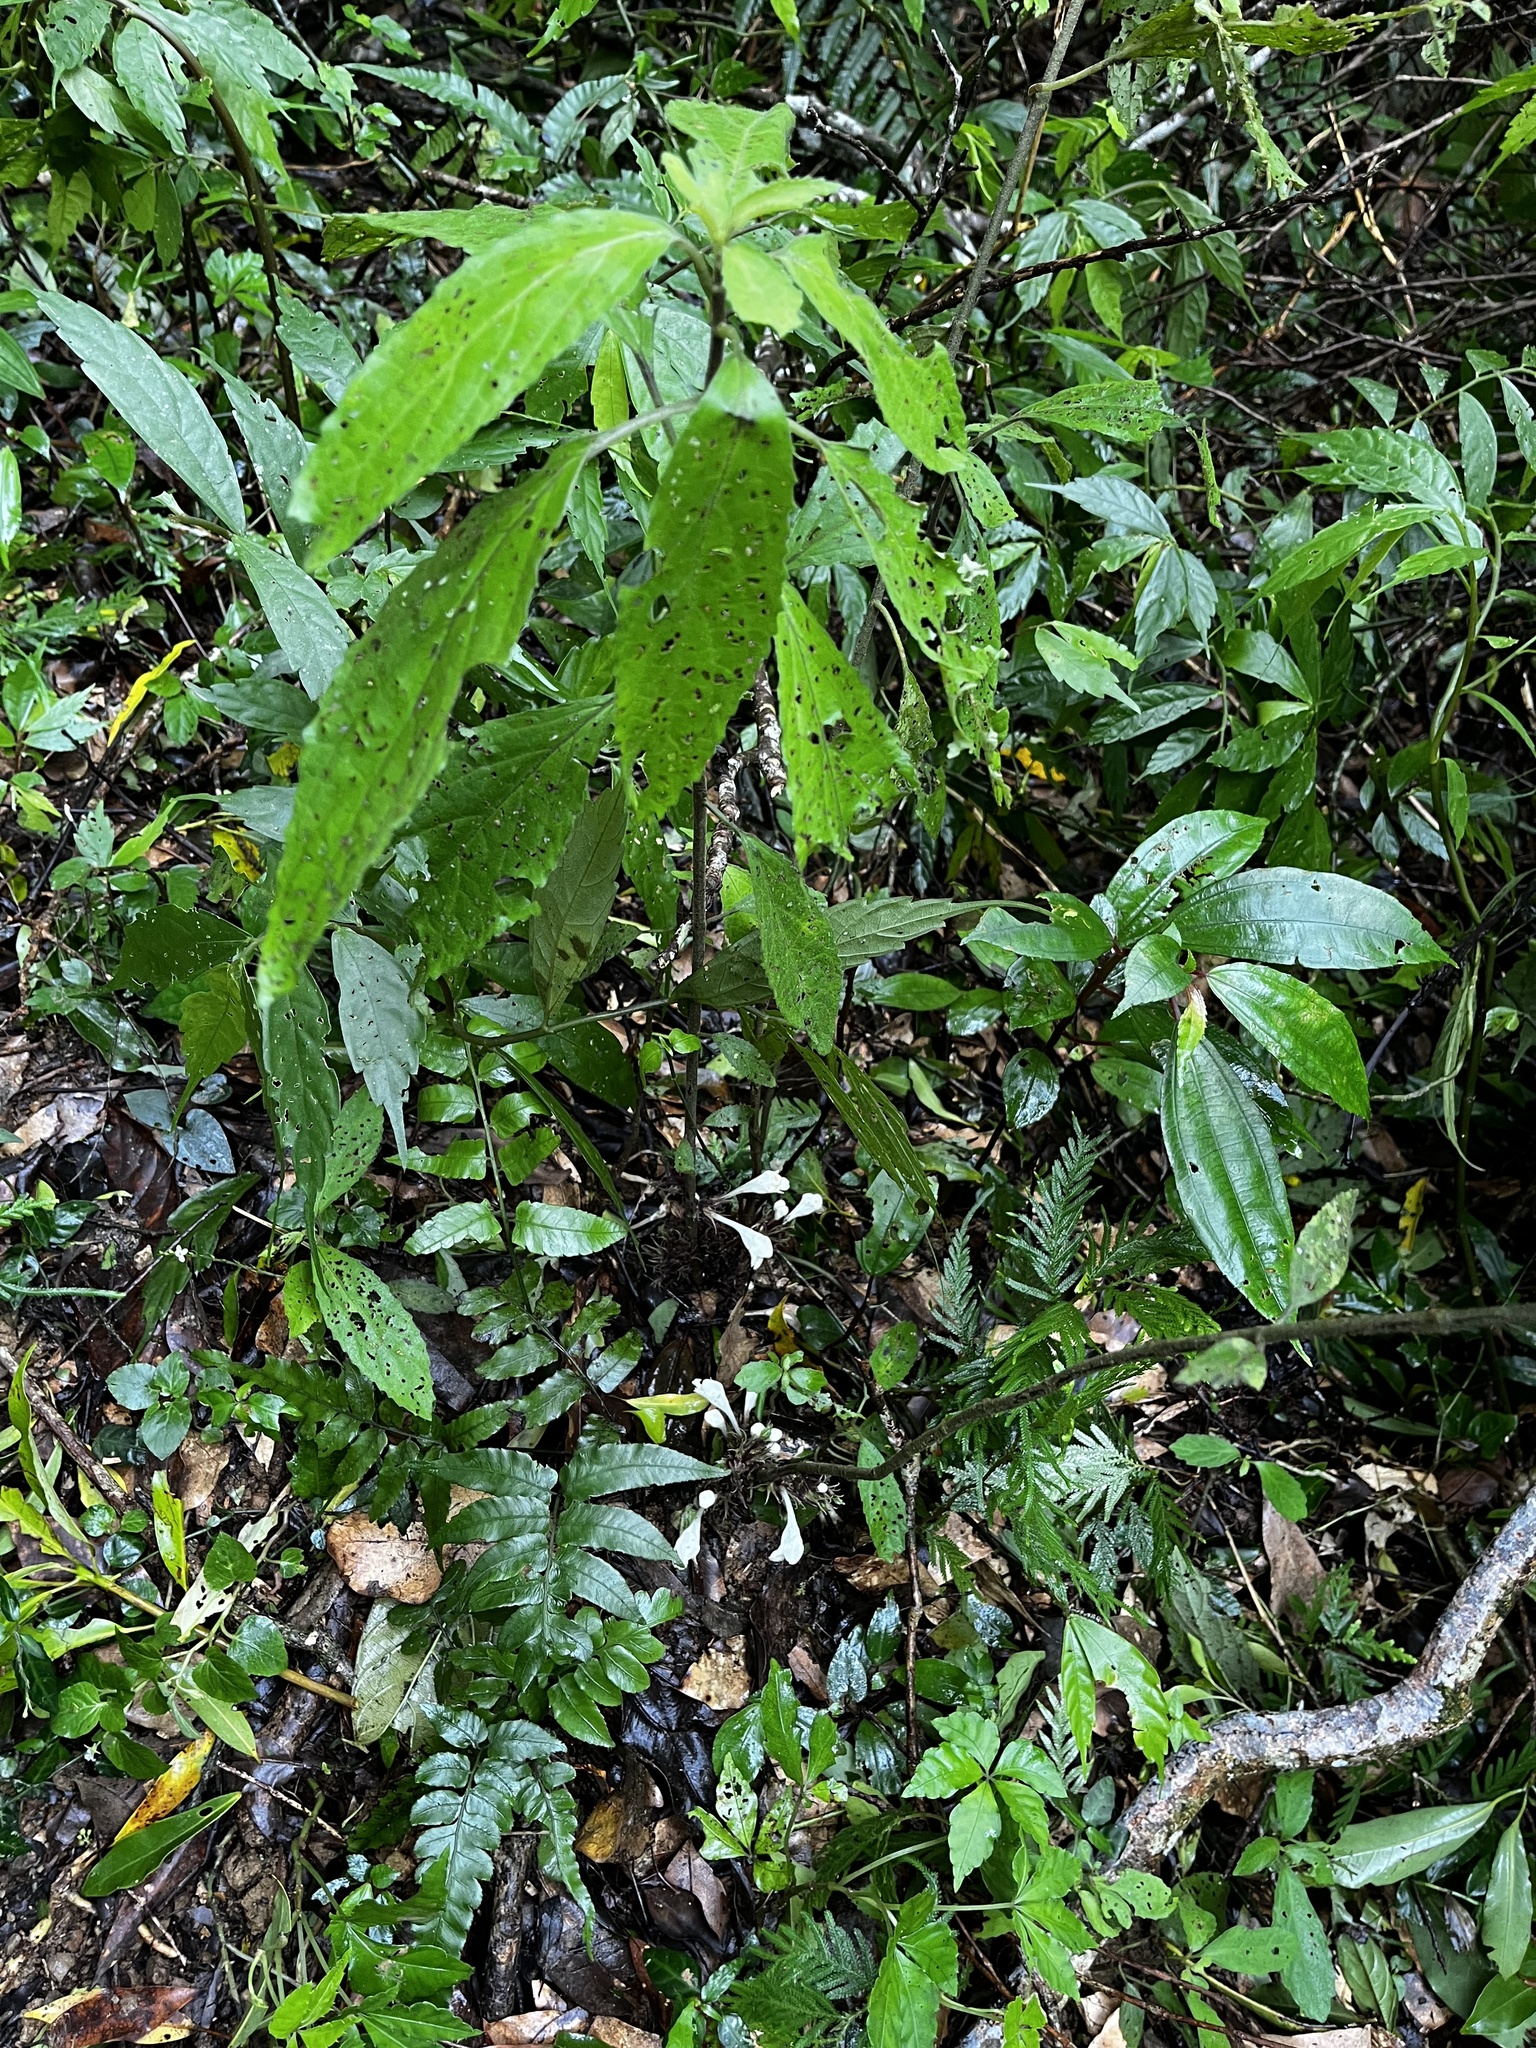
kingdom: Plantae
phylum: Tracheophyta
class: Magnoliopsida
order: Lamiales
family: Lamiaceae
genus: Gomphostemma
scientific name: Gomphostemma chinense
